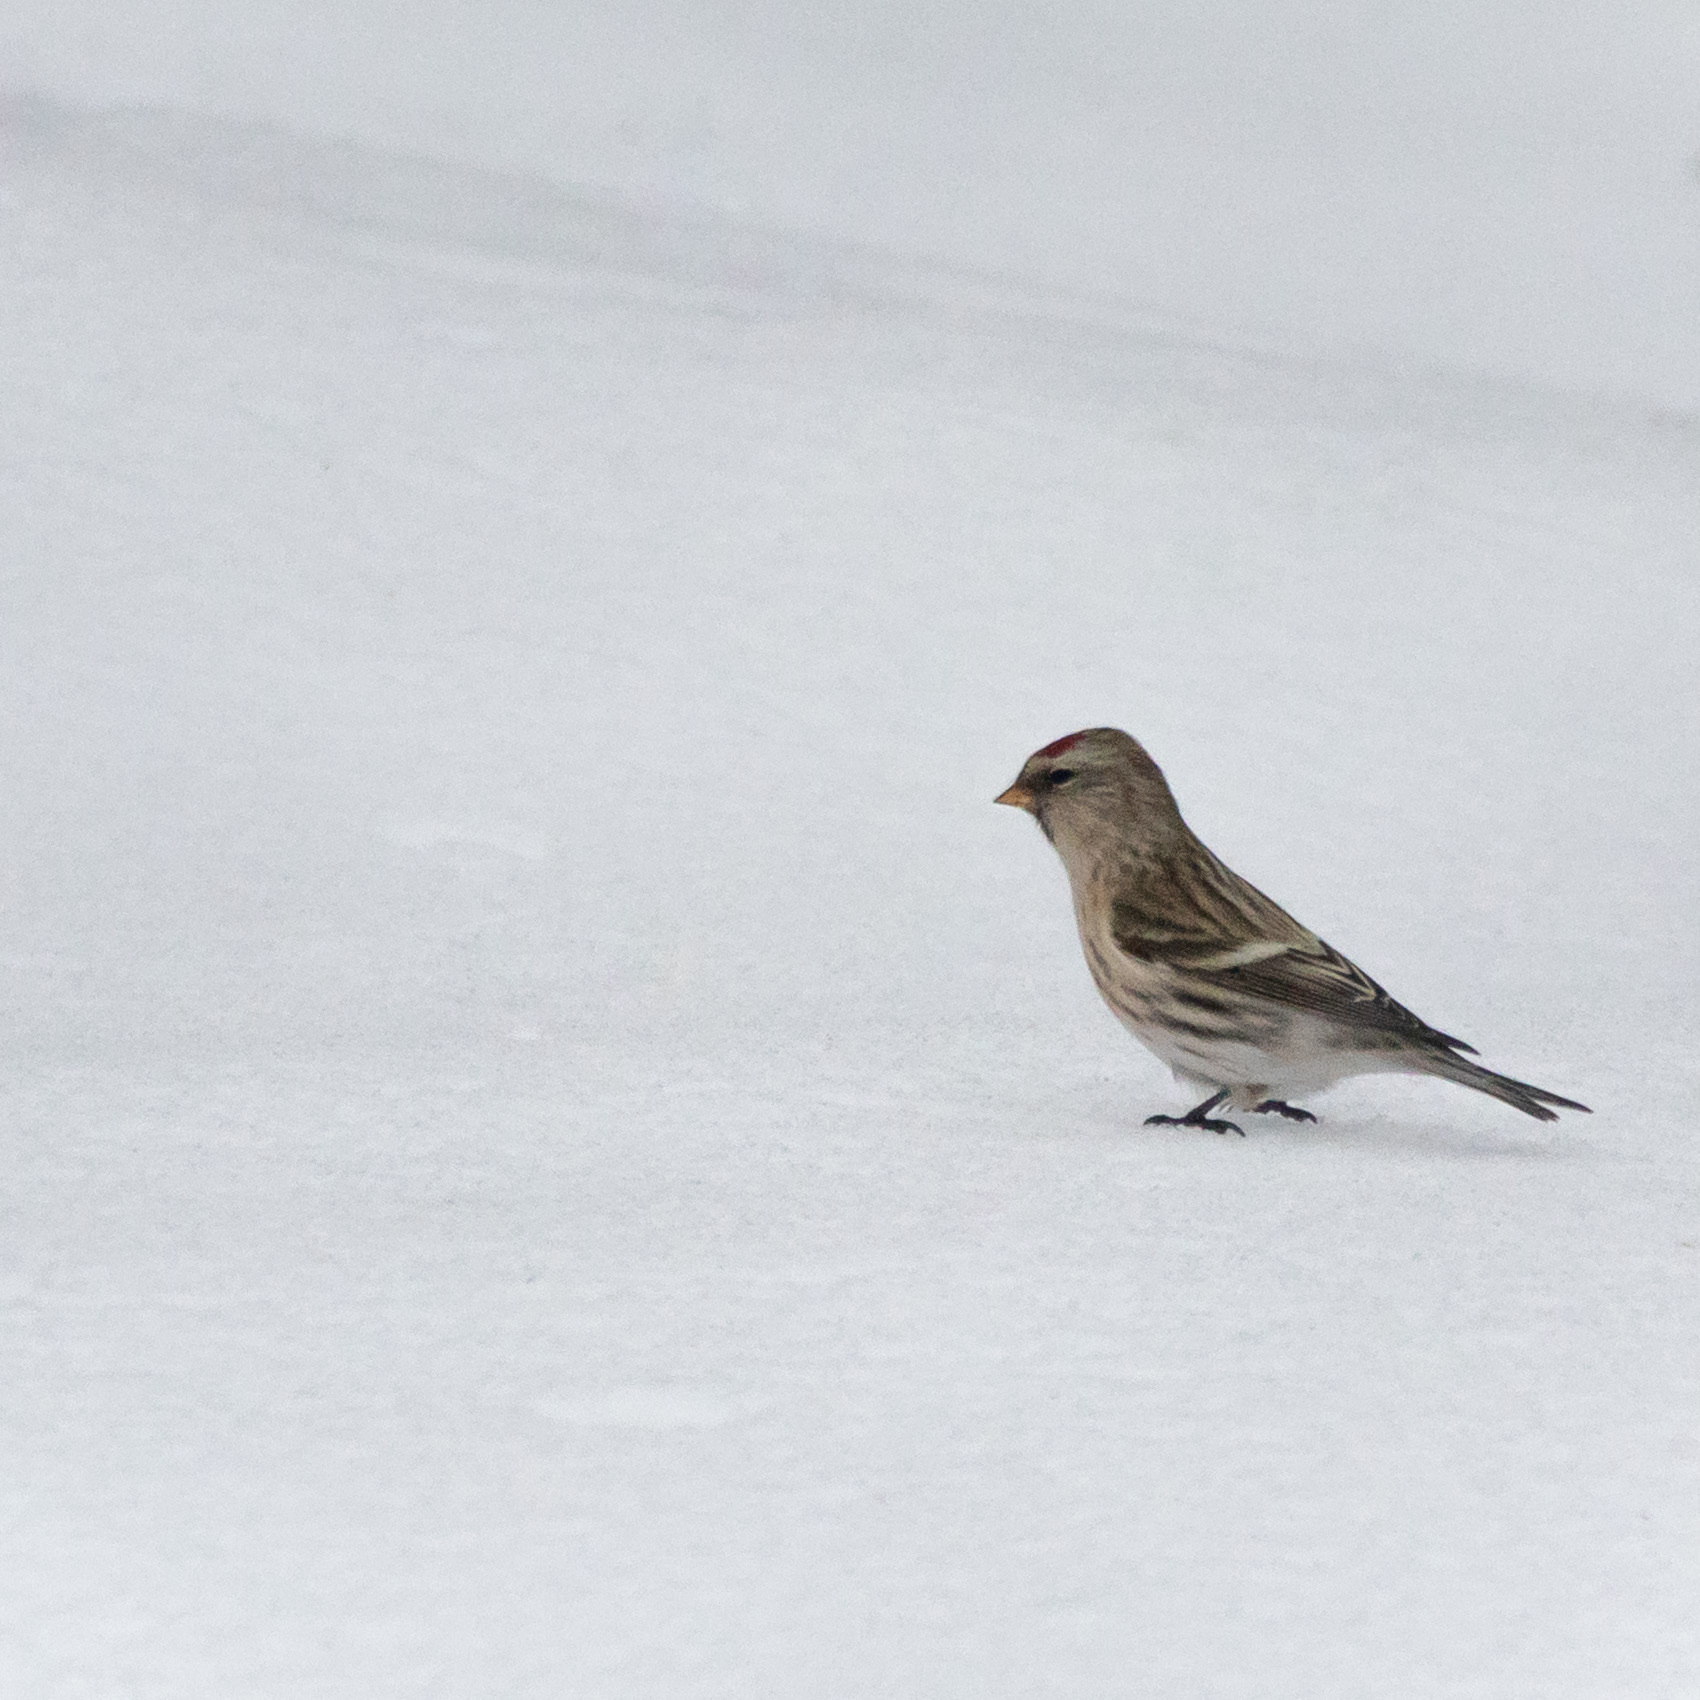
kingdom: Animalia
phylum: Chordata
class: Aves
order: Passeriformes
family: Fringillidae
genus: Acanthis
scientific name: Acanthis flammea
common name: Common redpoll
